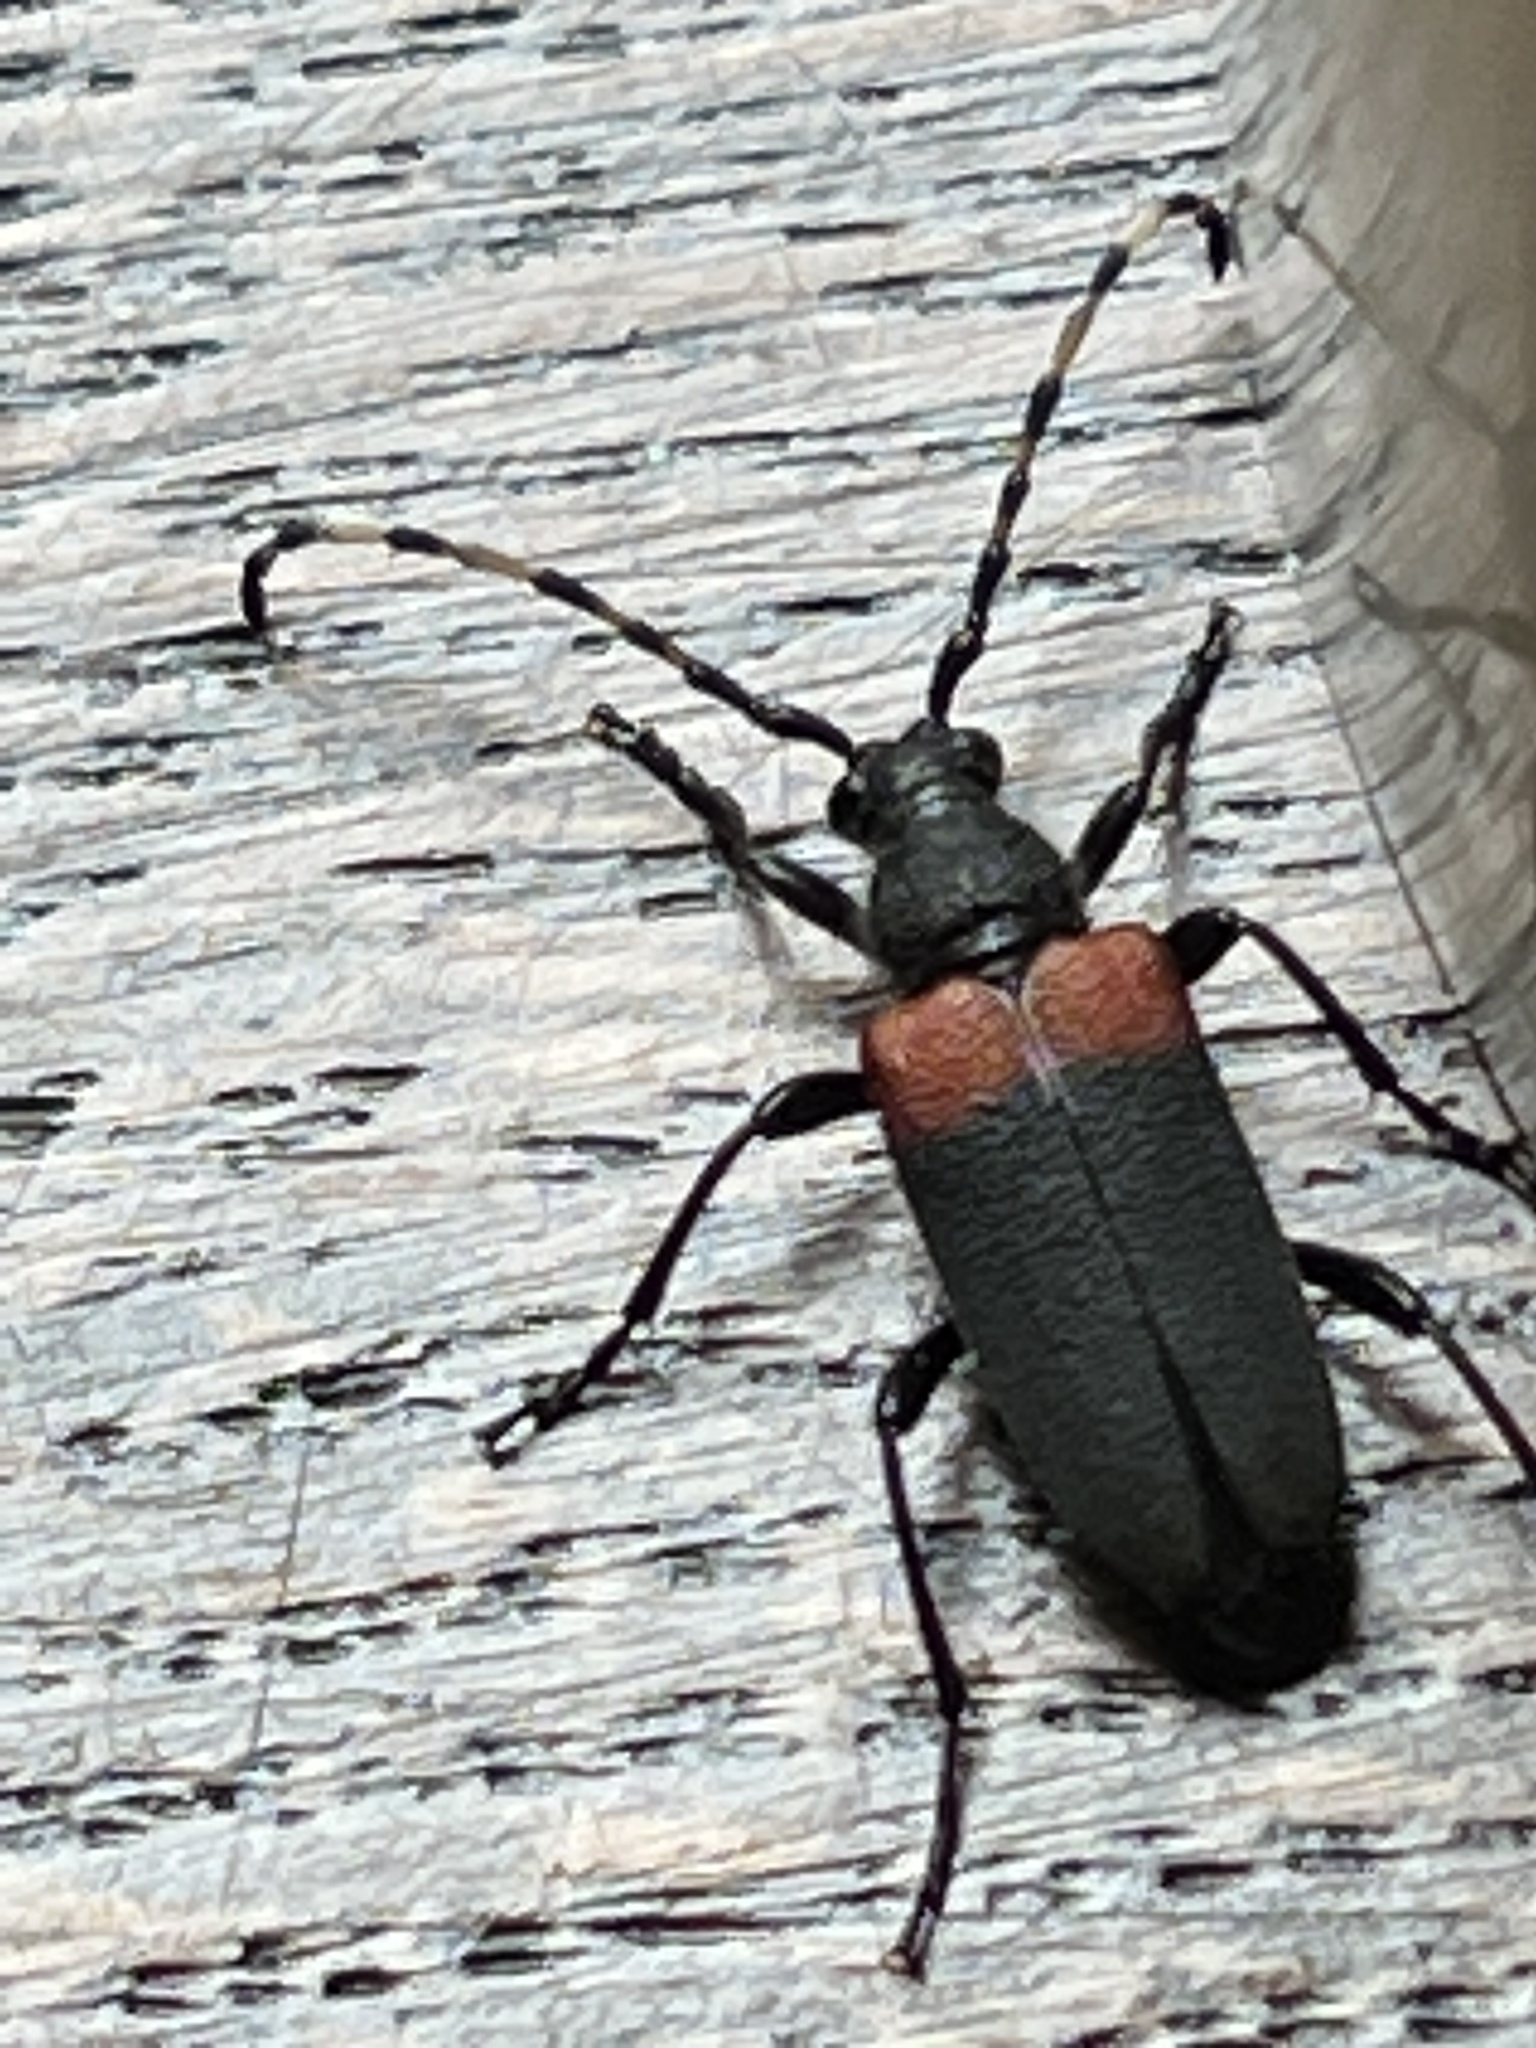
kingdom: Animalia
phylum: Arthropoda
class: Insecta
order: Coleoptera
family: Cerambycidae
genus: Stictoleptura
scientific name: Stictoleptura canadensis
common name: Red-shouldered pine borer
